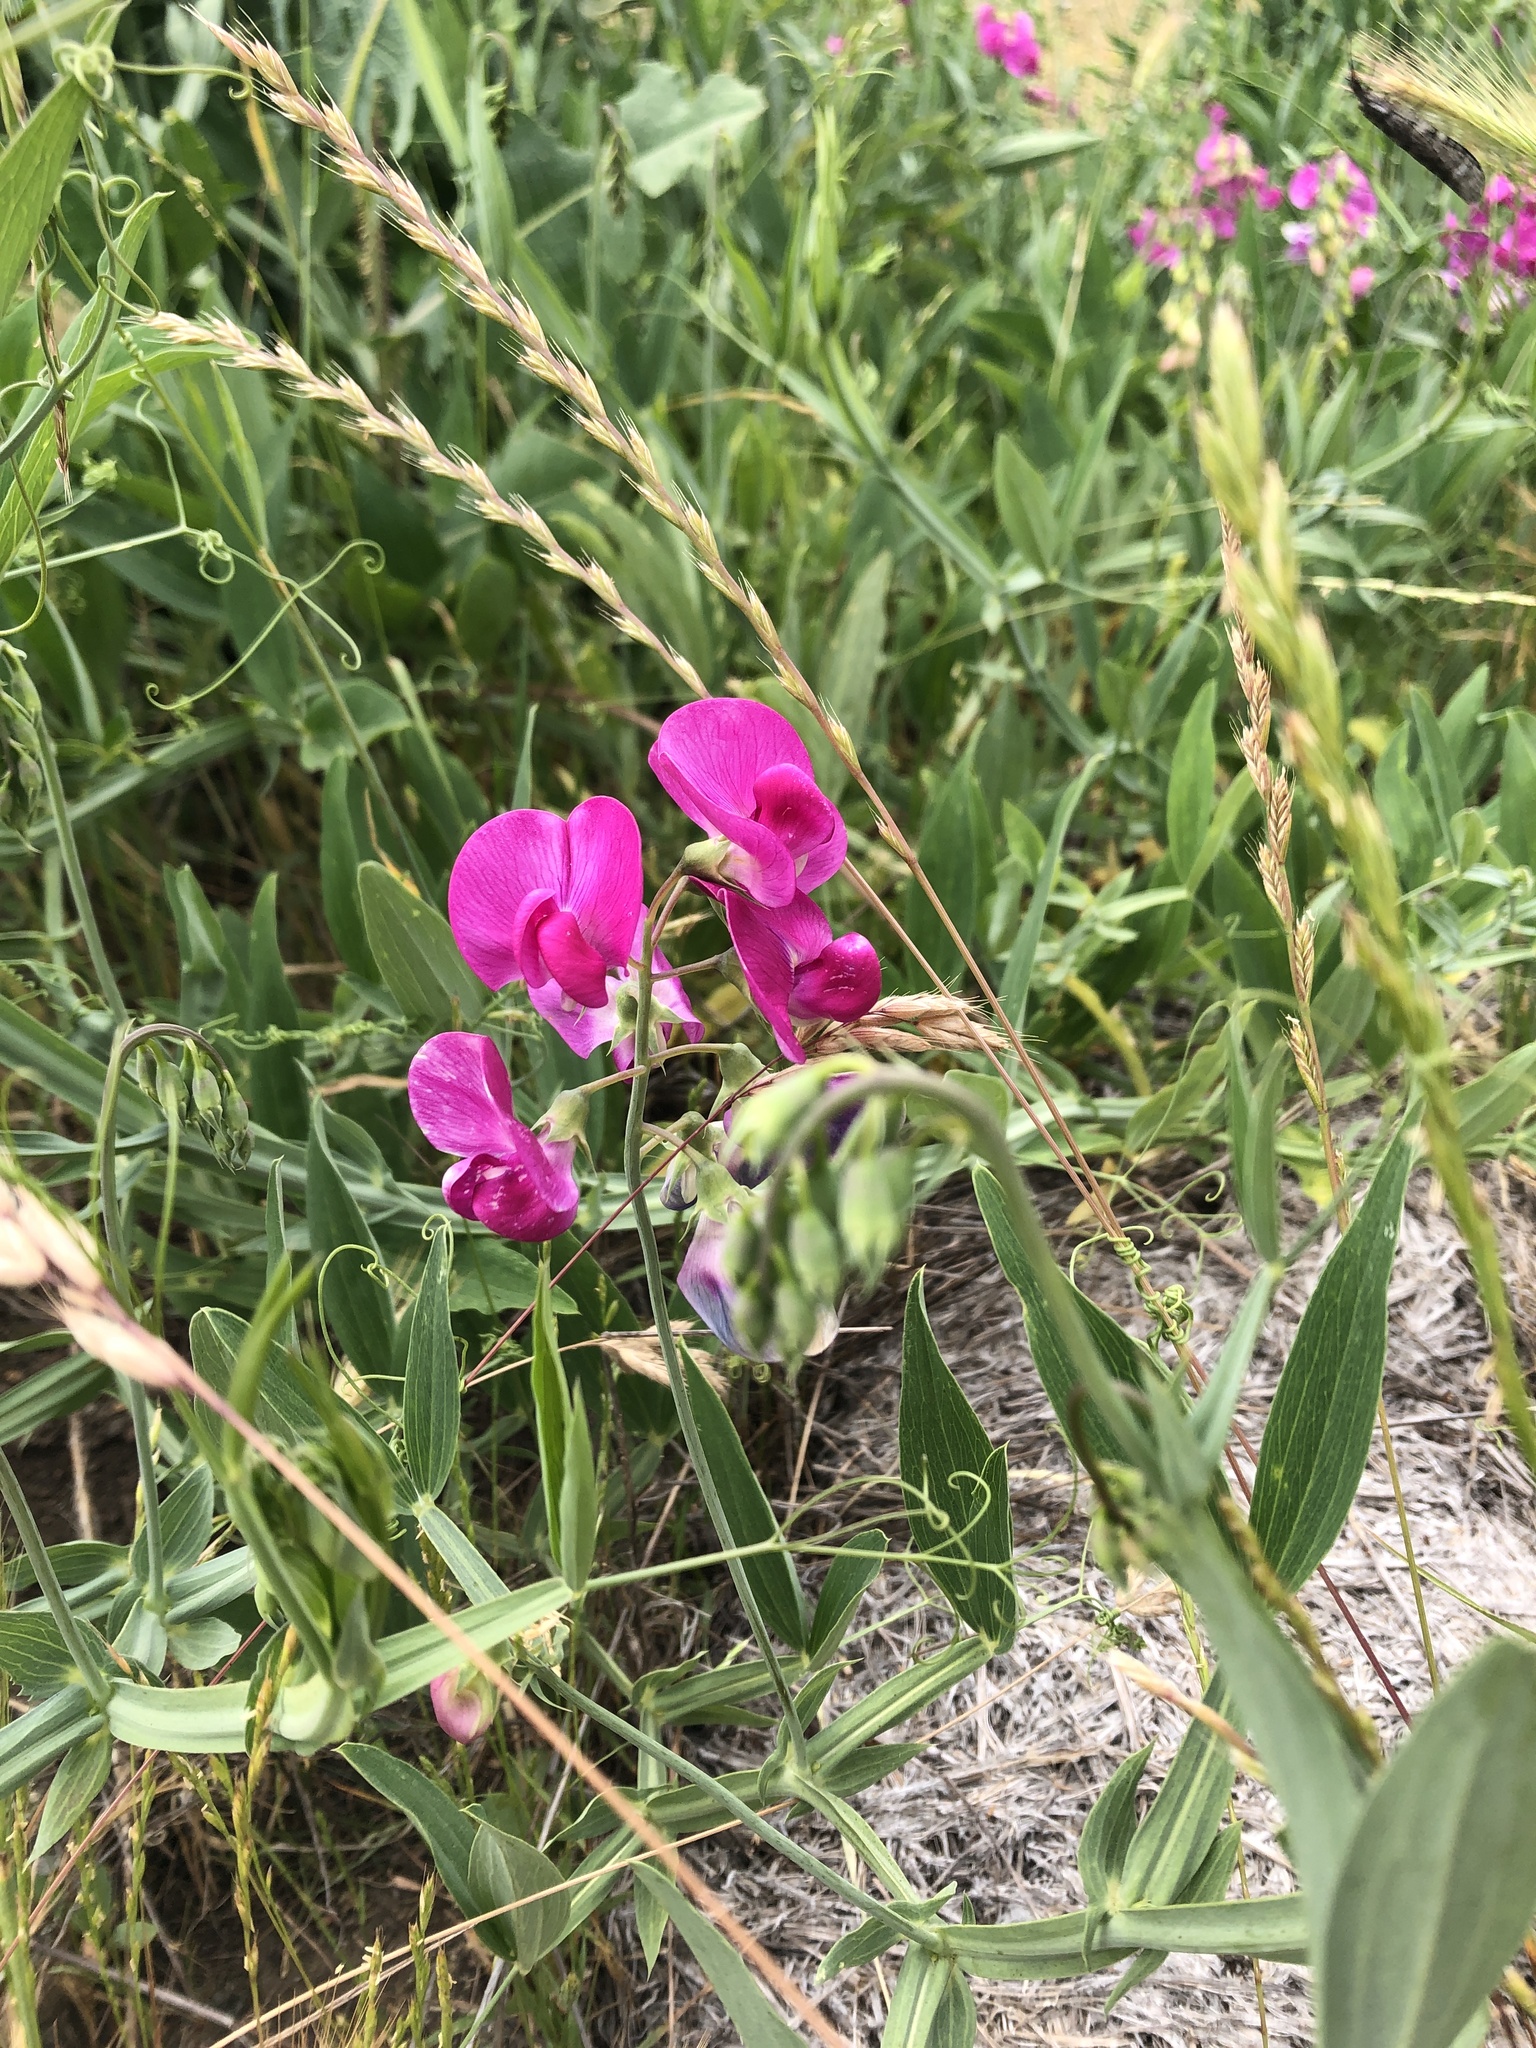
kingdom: Plantae
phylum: Tracheophyta
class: Magnoliopsida
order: Fabales
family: Fabaceae
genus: Lathyrus
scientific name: Lathyrus latifolius
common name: Perennial pea
